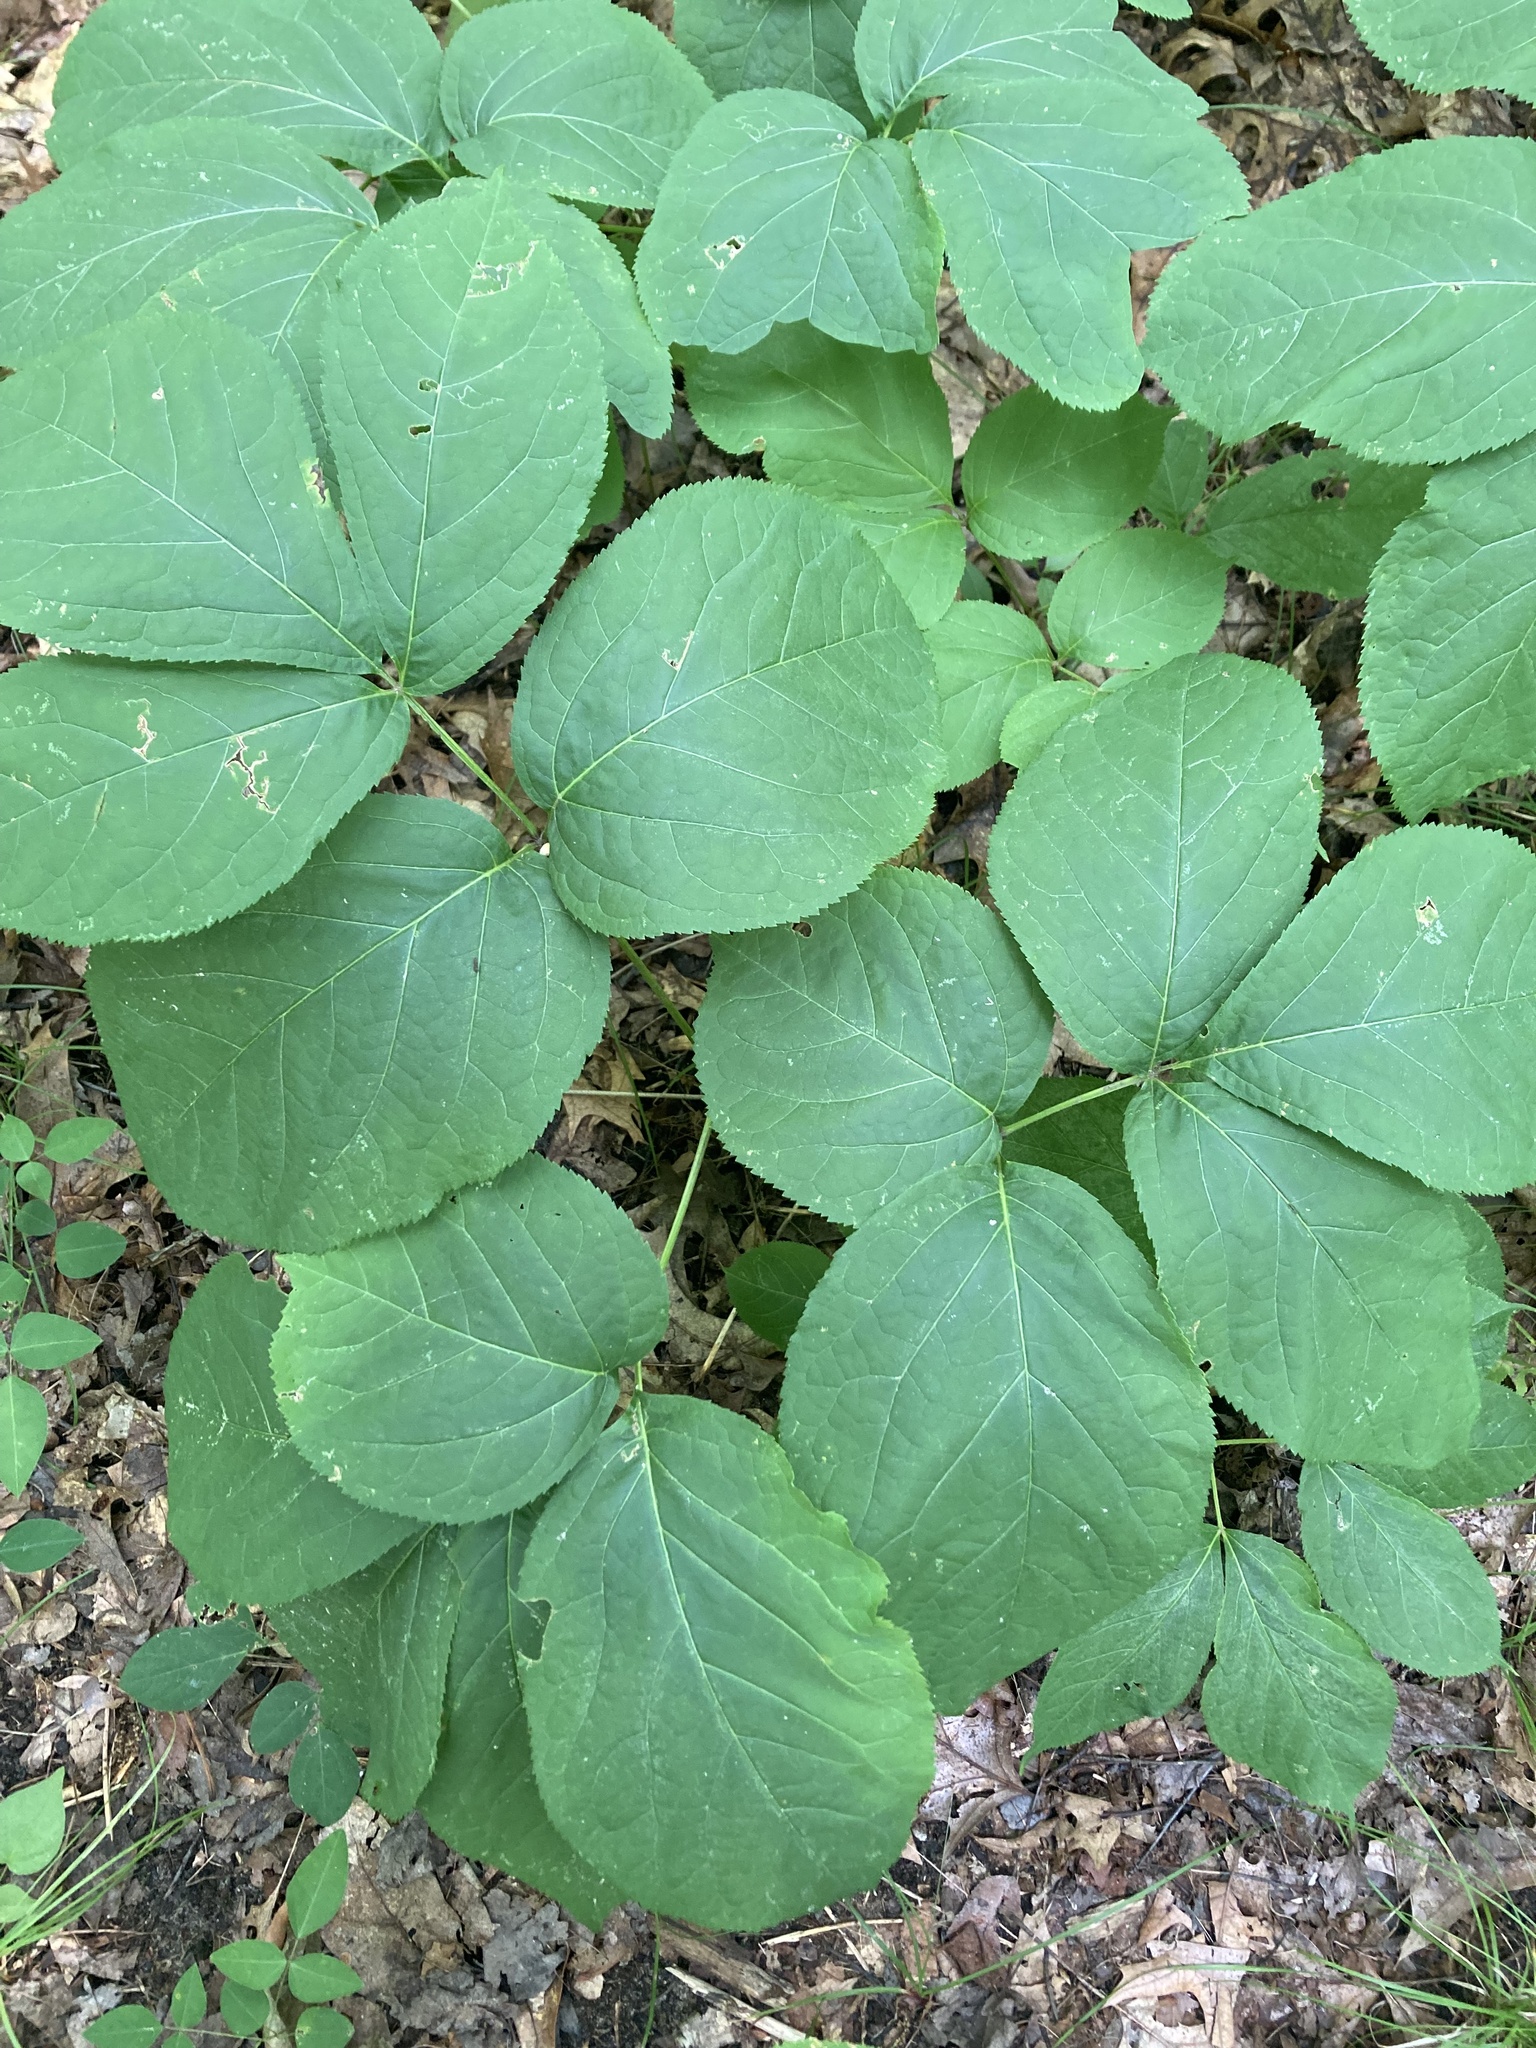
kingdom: Plantae
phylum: Tracheophyta
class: Magnoliopsida
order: Apiales
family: Araliaceae
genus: Aralia
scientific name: Aralia nudicaulis
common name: Wild sarsaparilla
